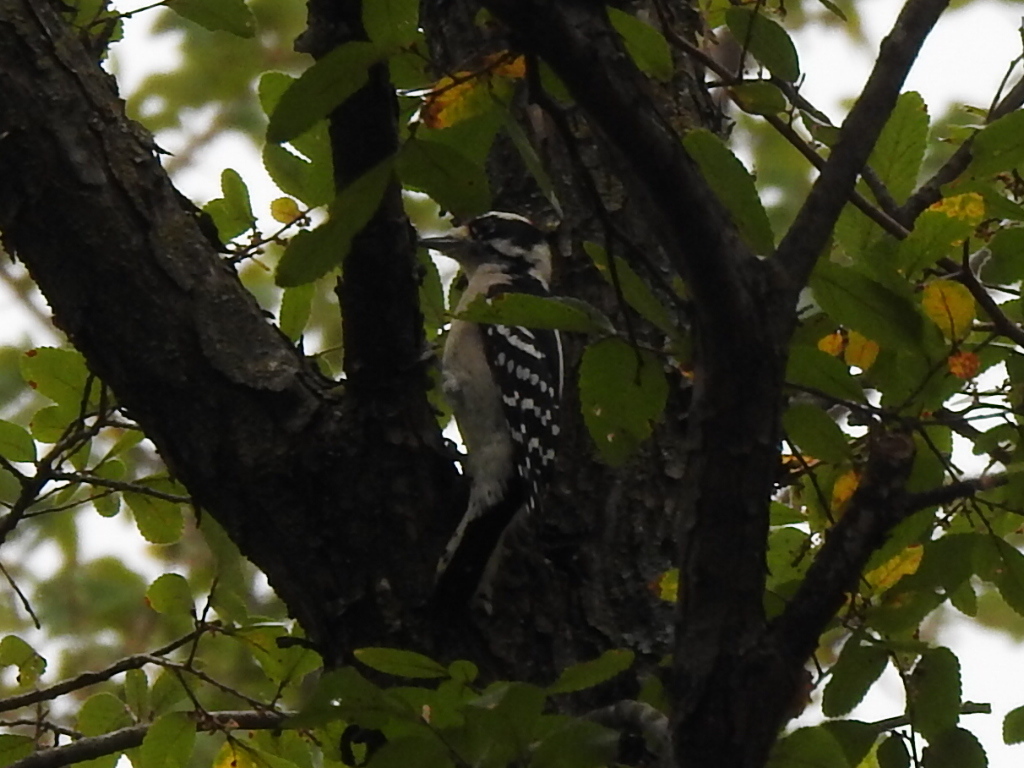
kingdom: Animalia
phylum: Chordata
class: Aves
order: Piciformes
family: Picidae
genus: Dryobates
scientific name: Dryobates pubescens
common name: Downy woodpecker
